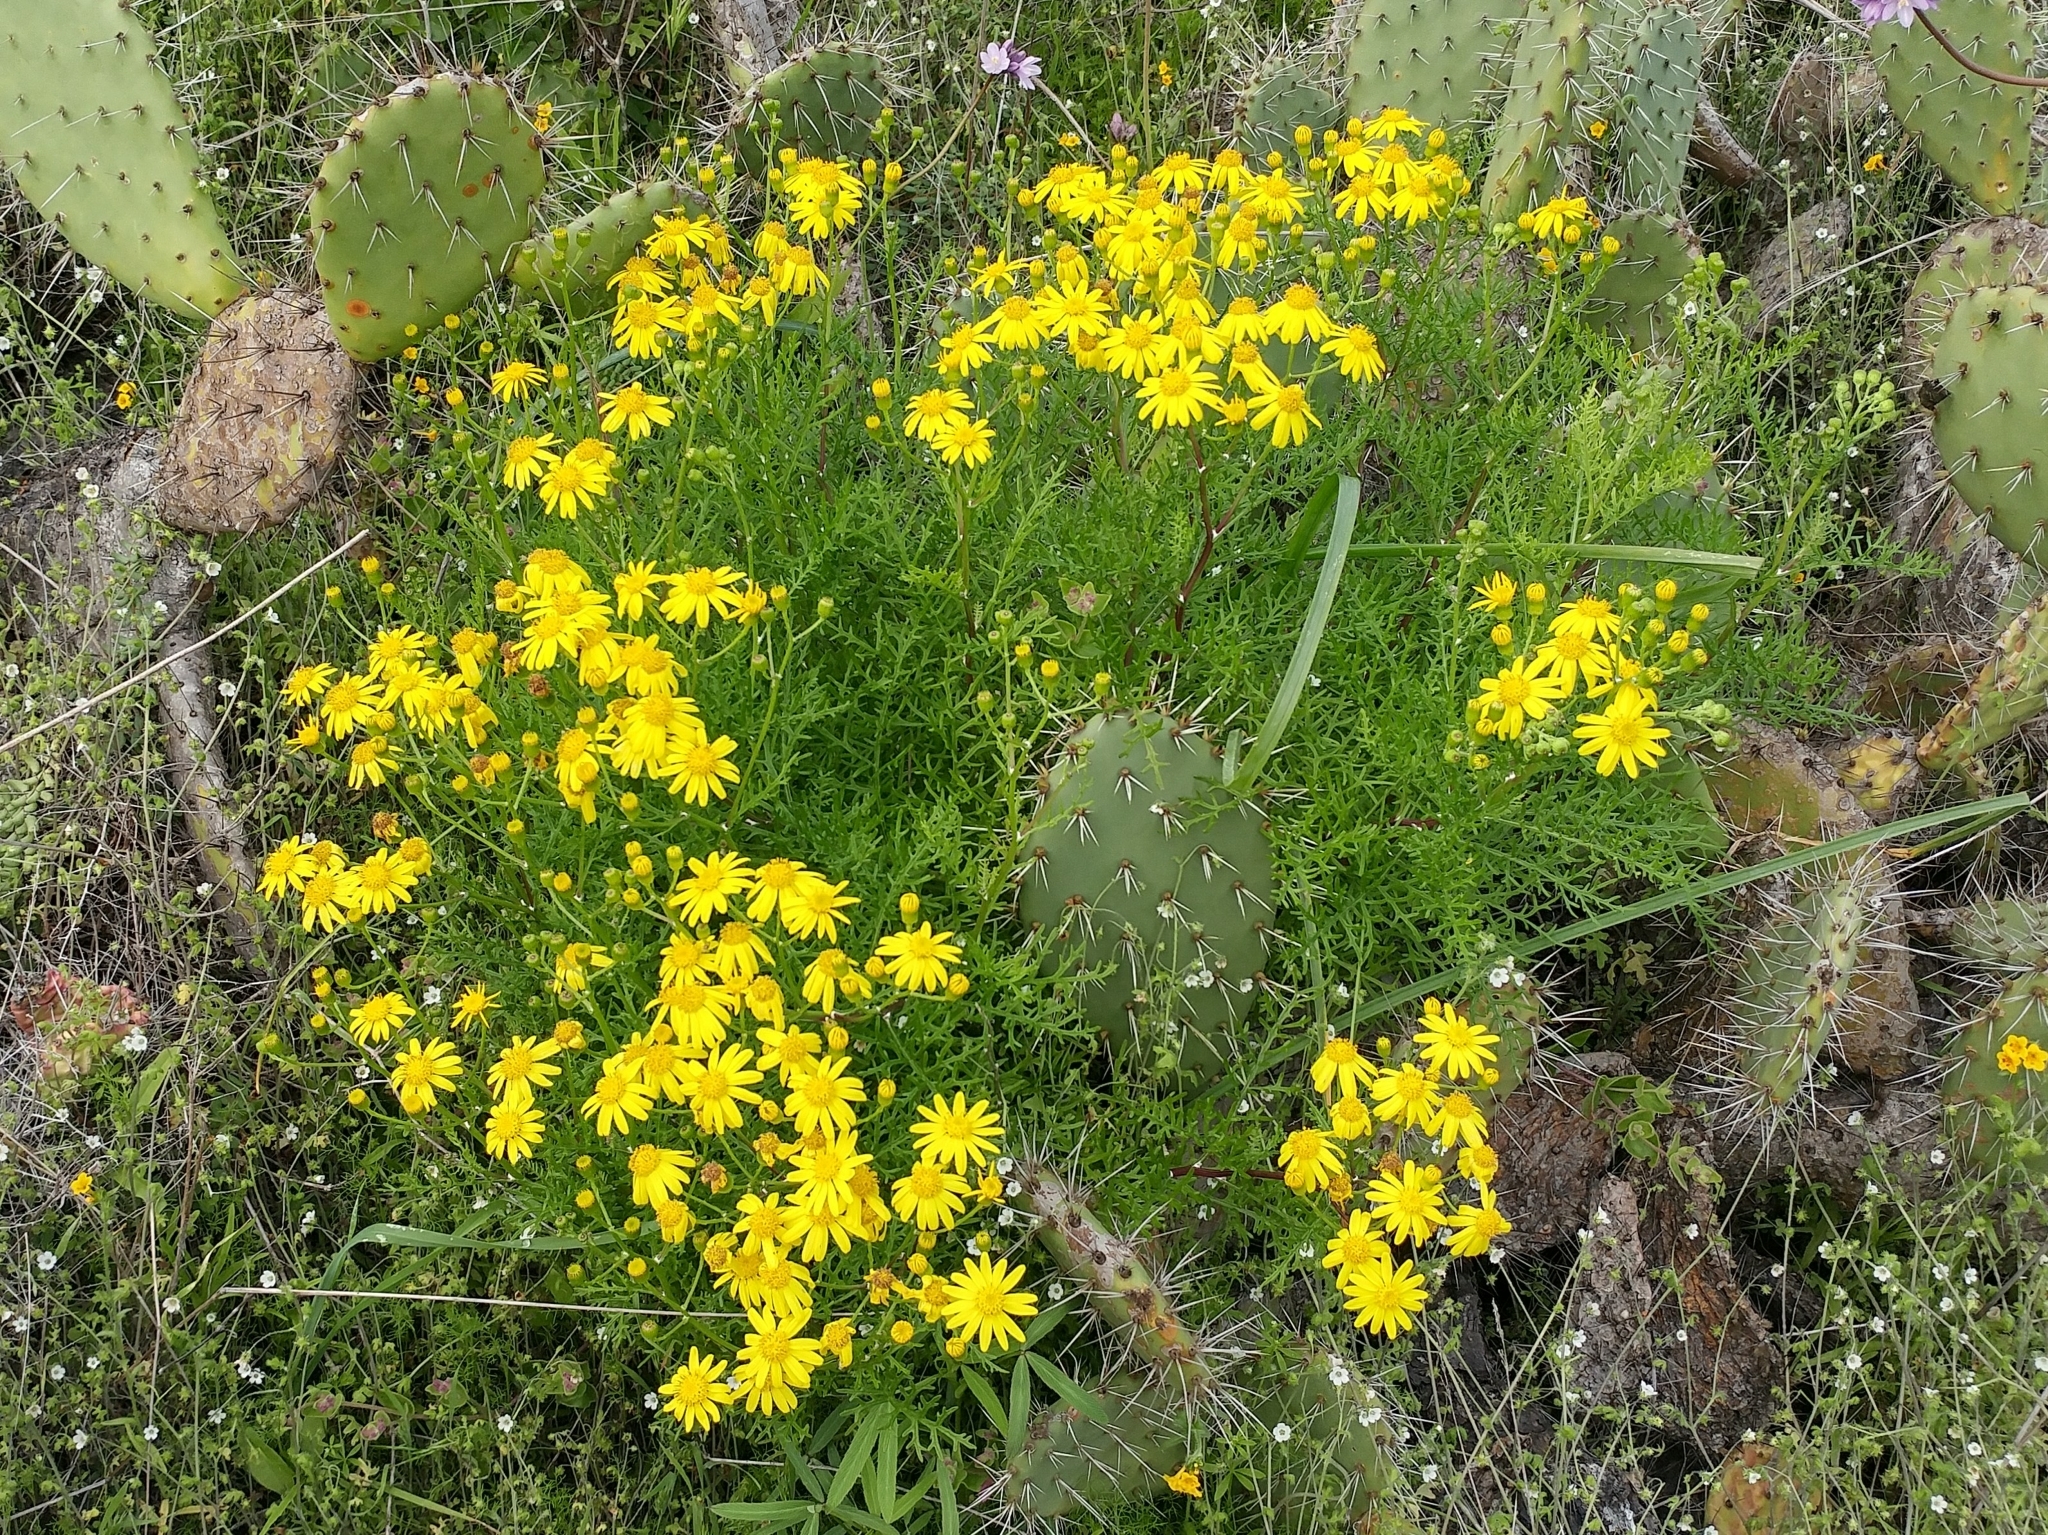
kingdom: Plantae
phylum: Tracheophyta
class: Magnoliopsida
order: Asterales
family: Asteraceae
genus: Senecio
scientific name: Senecio lyonii
